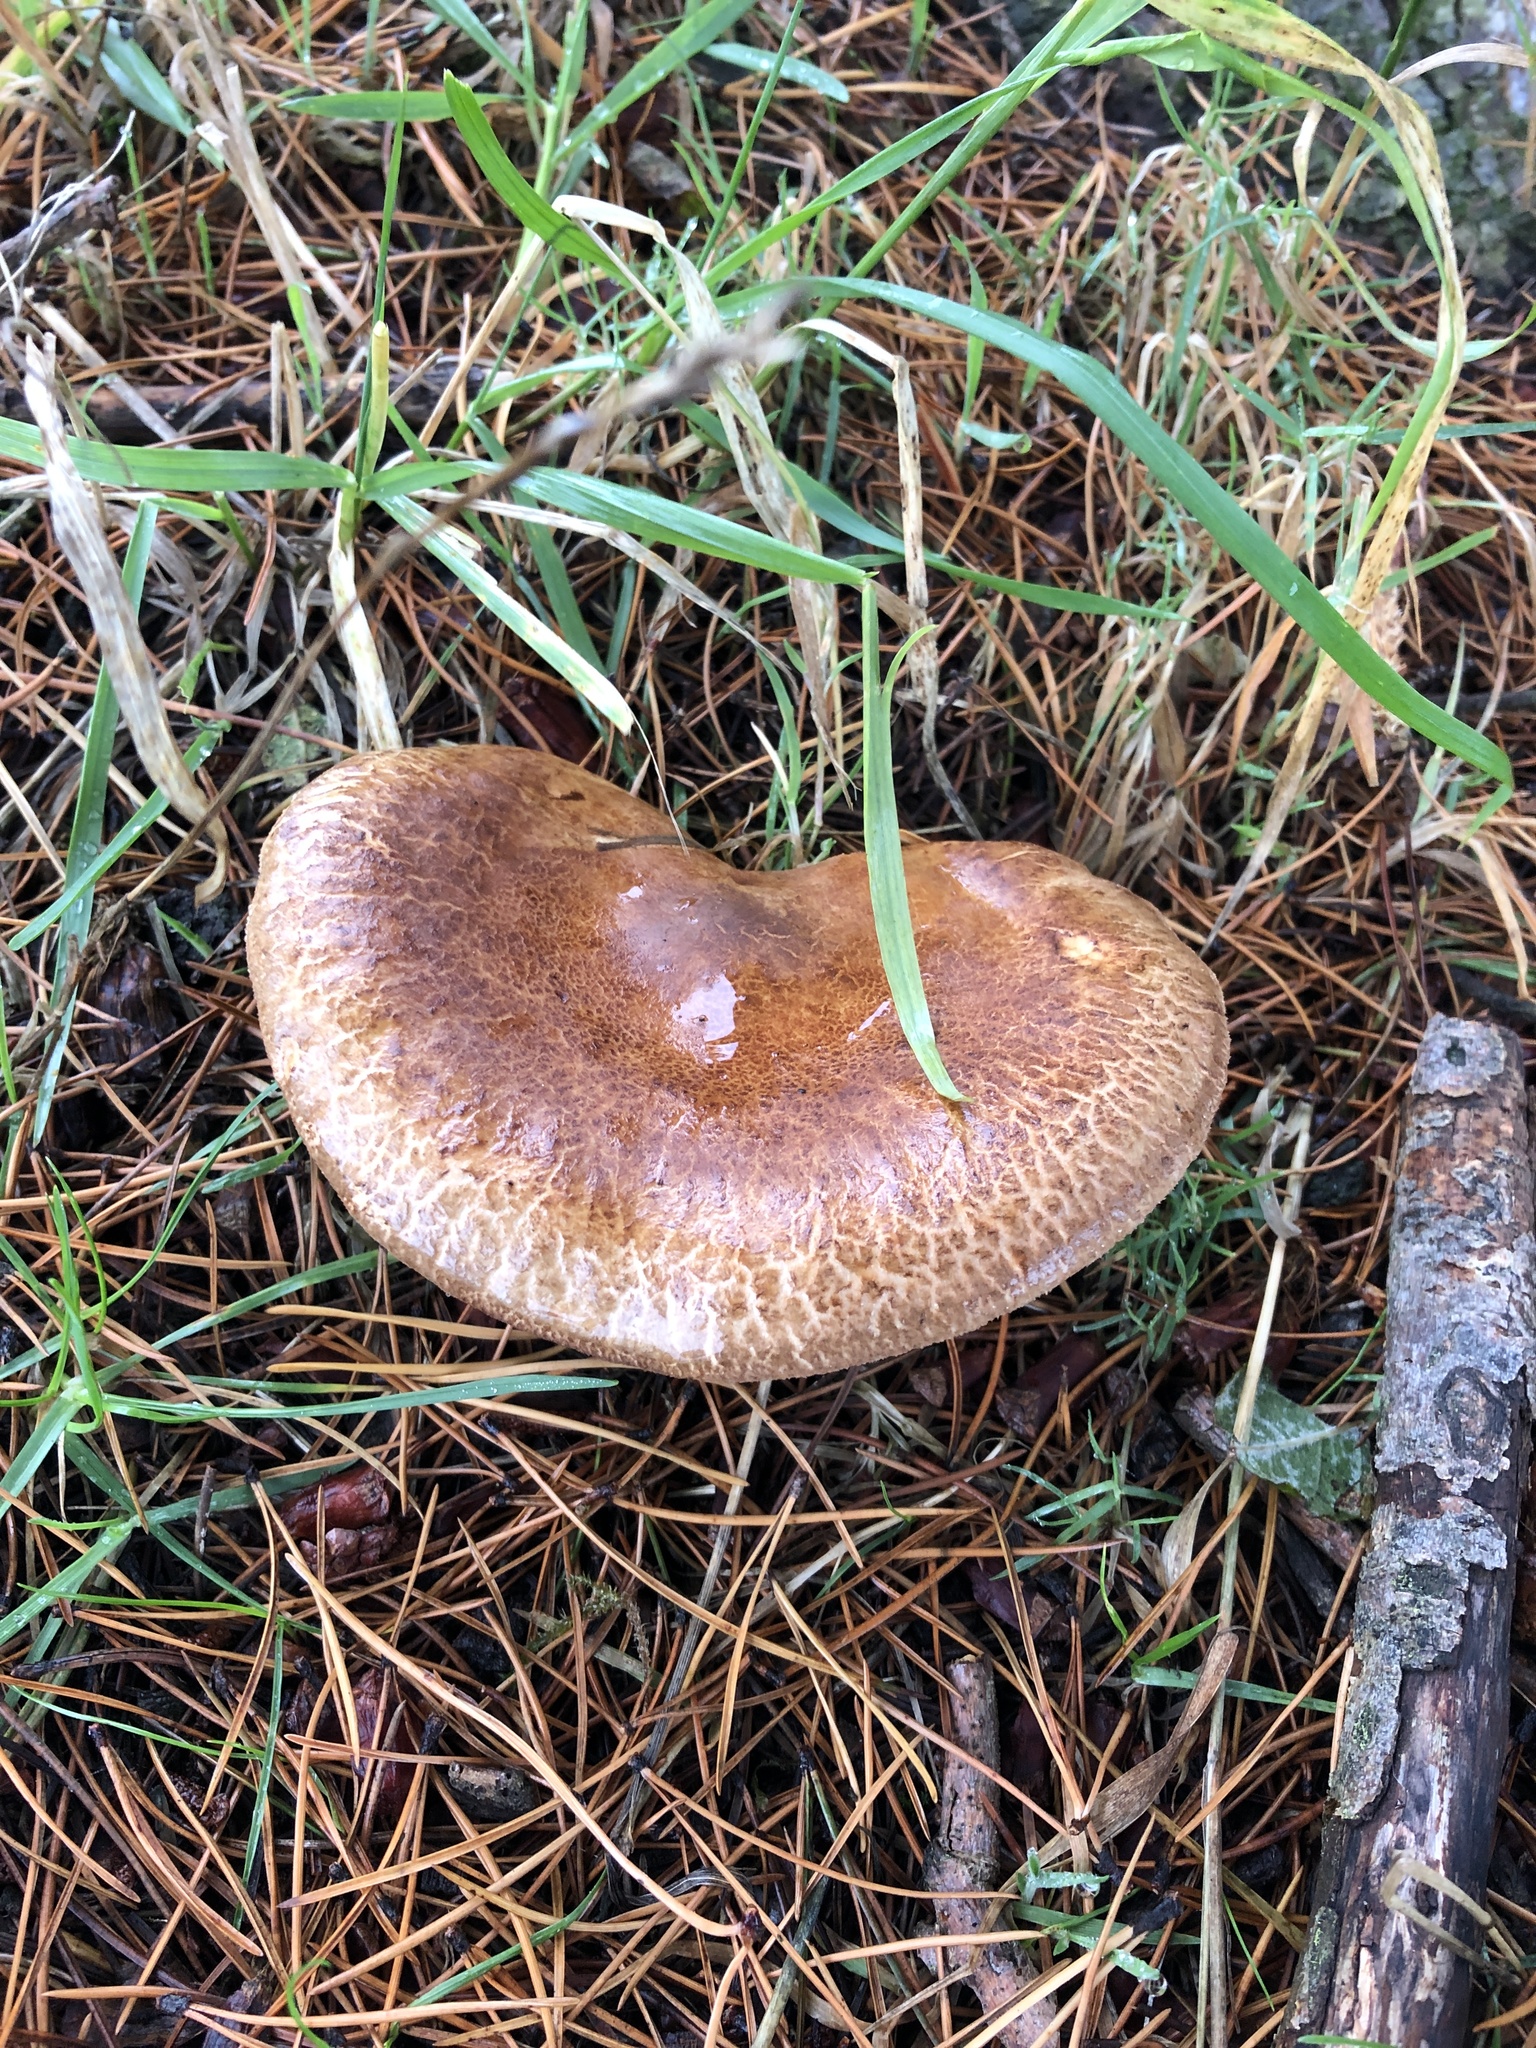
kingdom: Fungi
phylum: Basidiomycota
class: Agaricomycetes
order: Boletales
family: Paxillaceae
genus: Paxillus
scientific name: Paxillus involutus
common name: Brown roll rim
